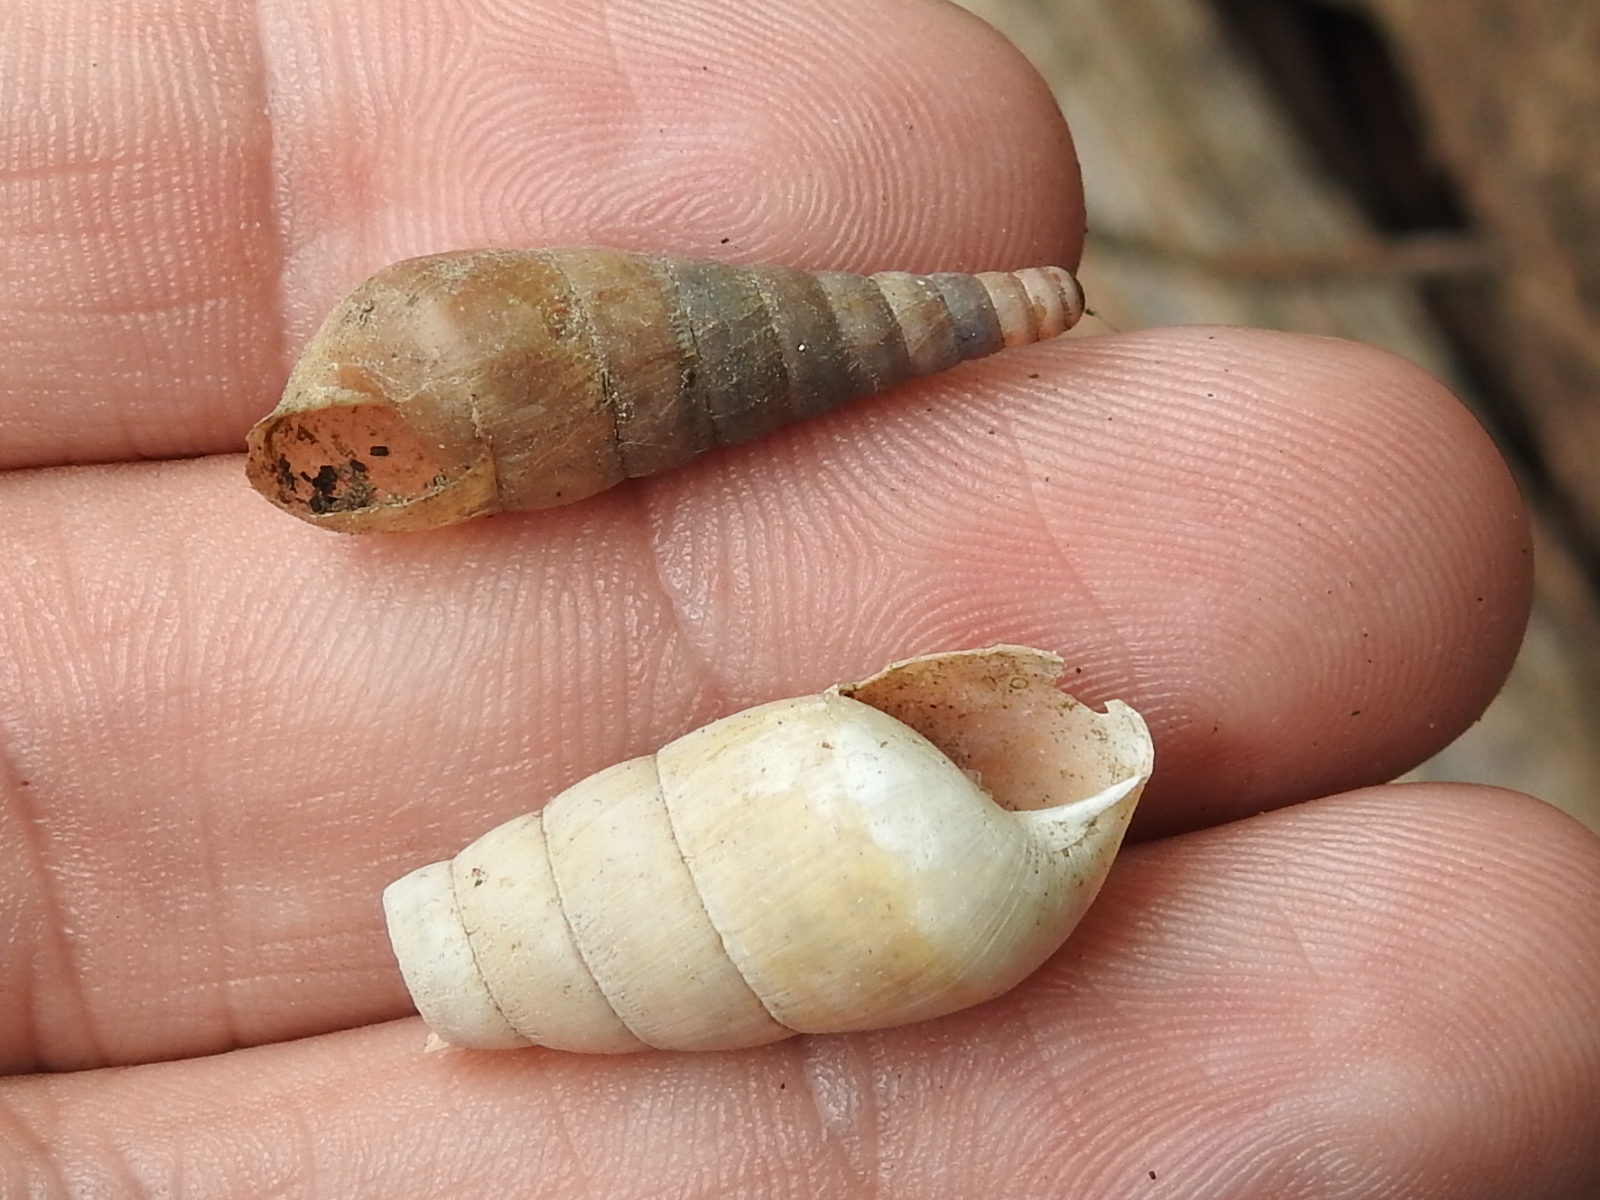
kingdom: Animalia
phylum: Mollusca
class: Gastropoda
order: Stylommatophora
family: Achatinidae
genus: Rumina
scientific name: Rumina decollata
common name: Decollate snail
